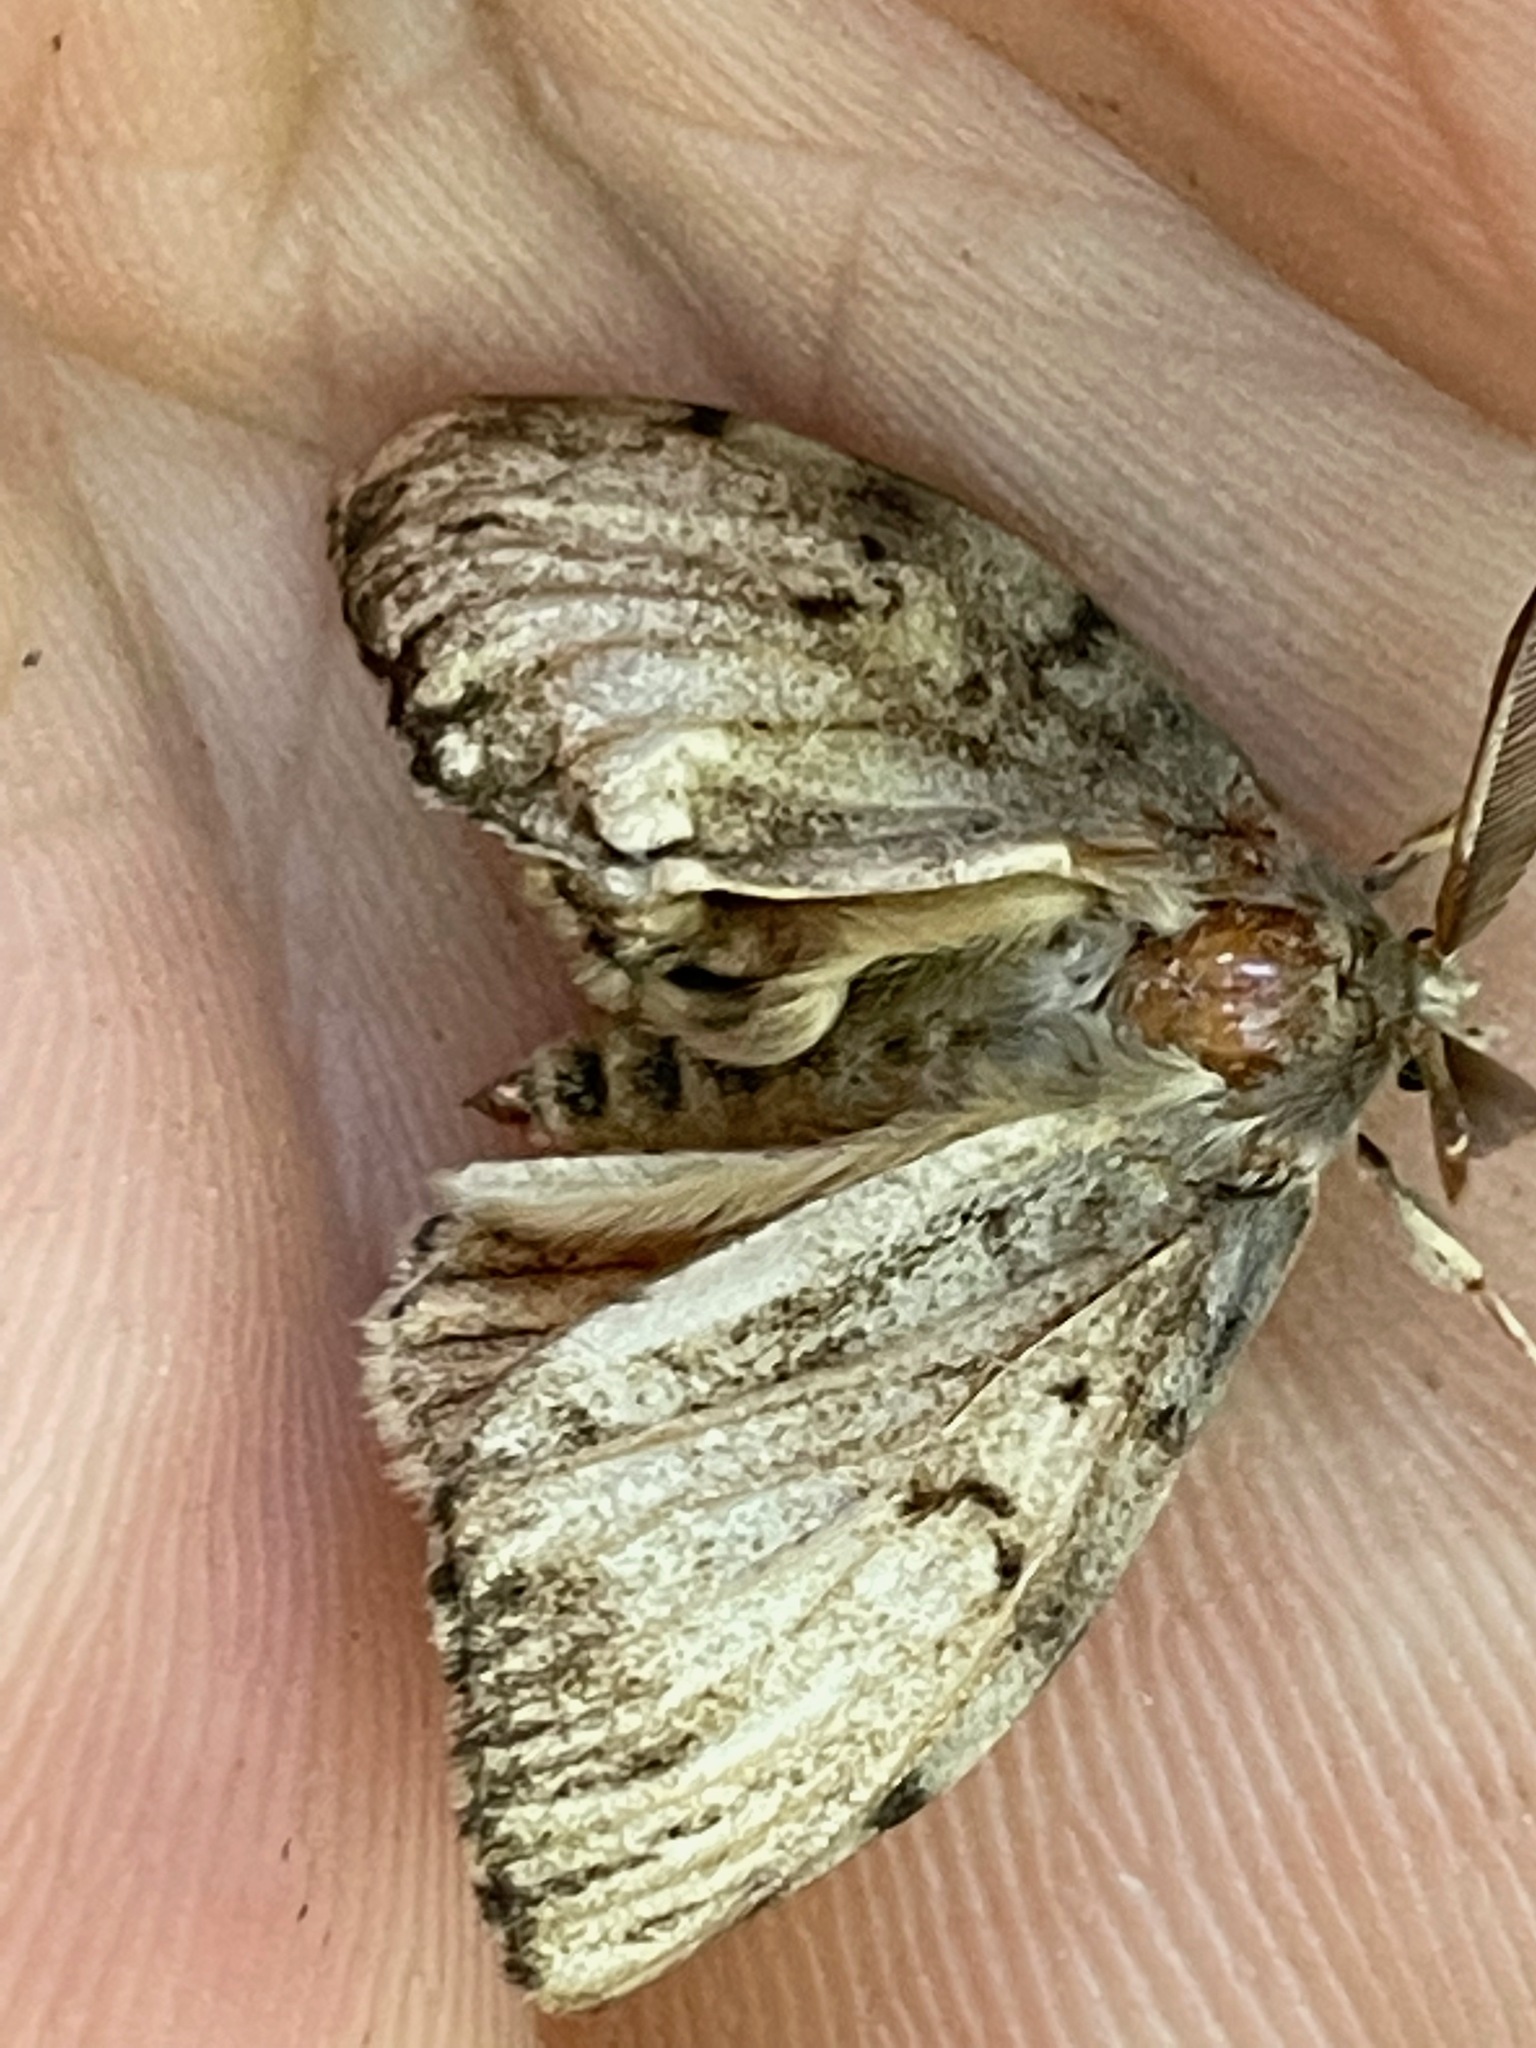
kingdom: Animalia
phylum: Arthropoda
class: Insecta
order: Lepidoptera
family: Erebidae
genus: Lymantria
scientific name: Lymantria dispar
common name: Gypsy moth
